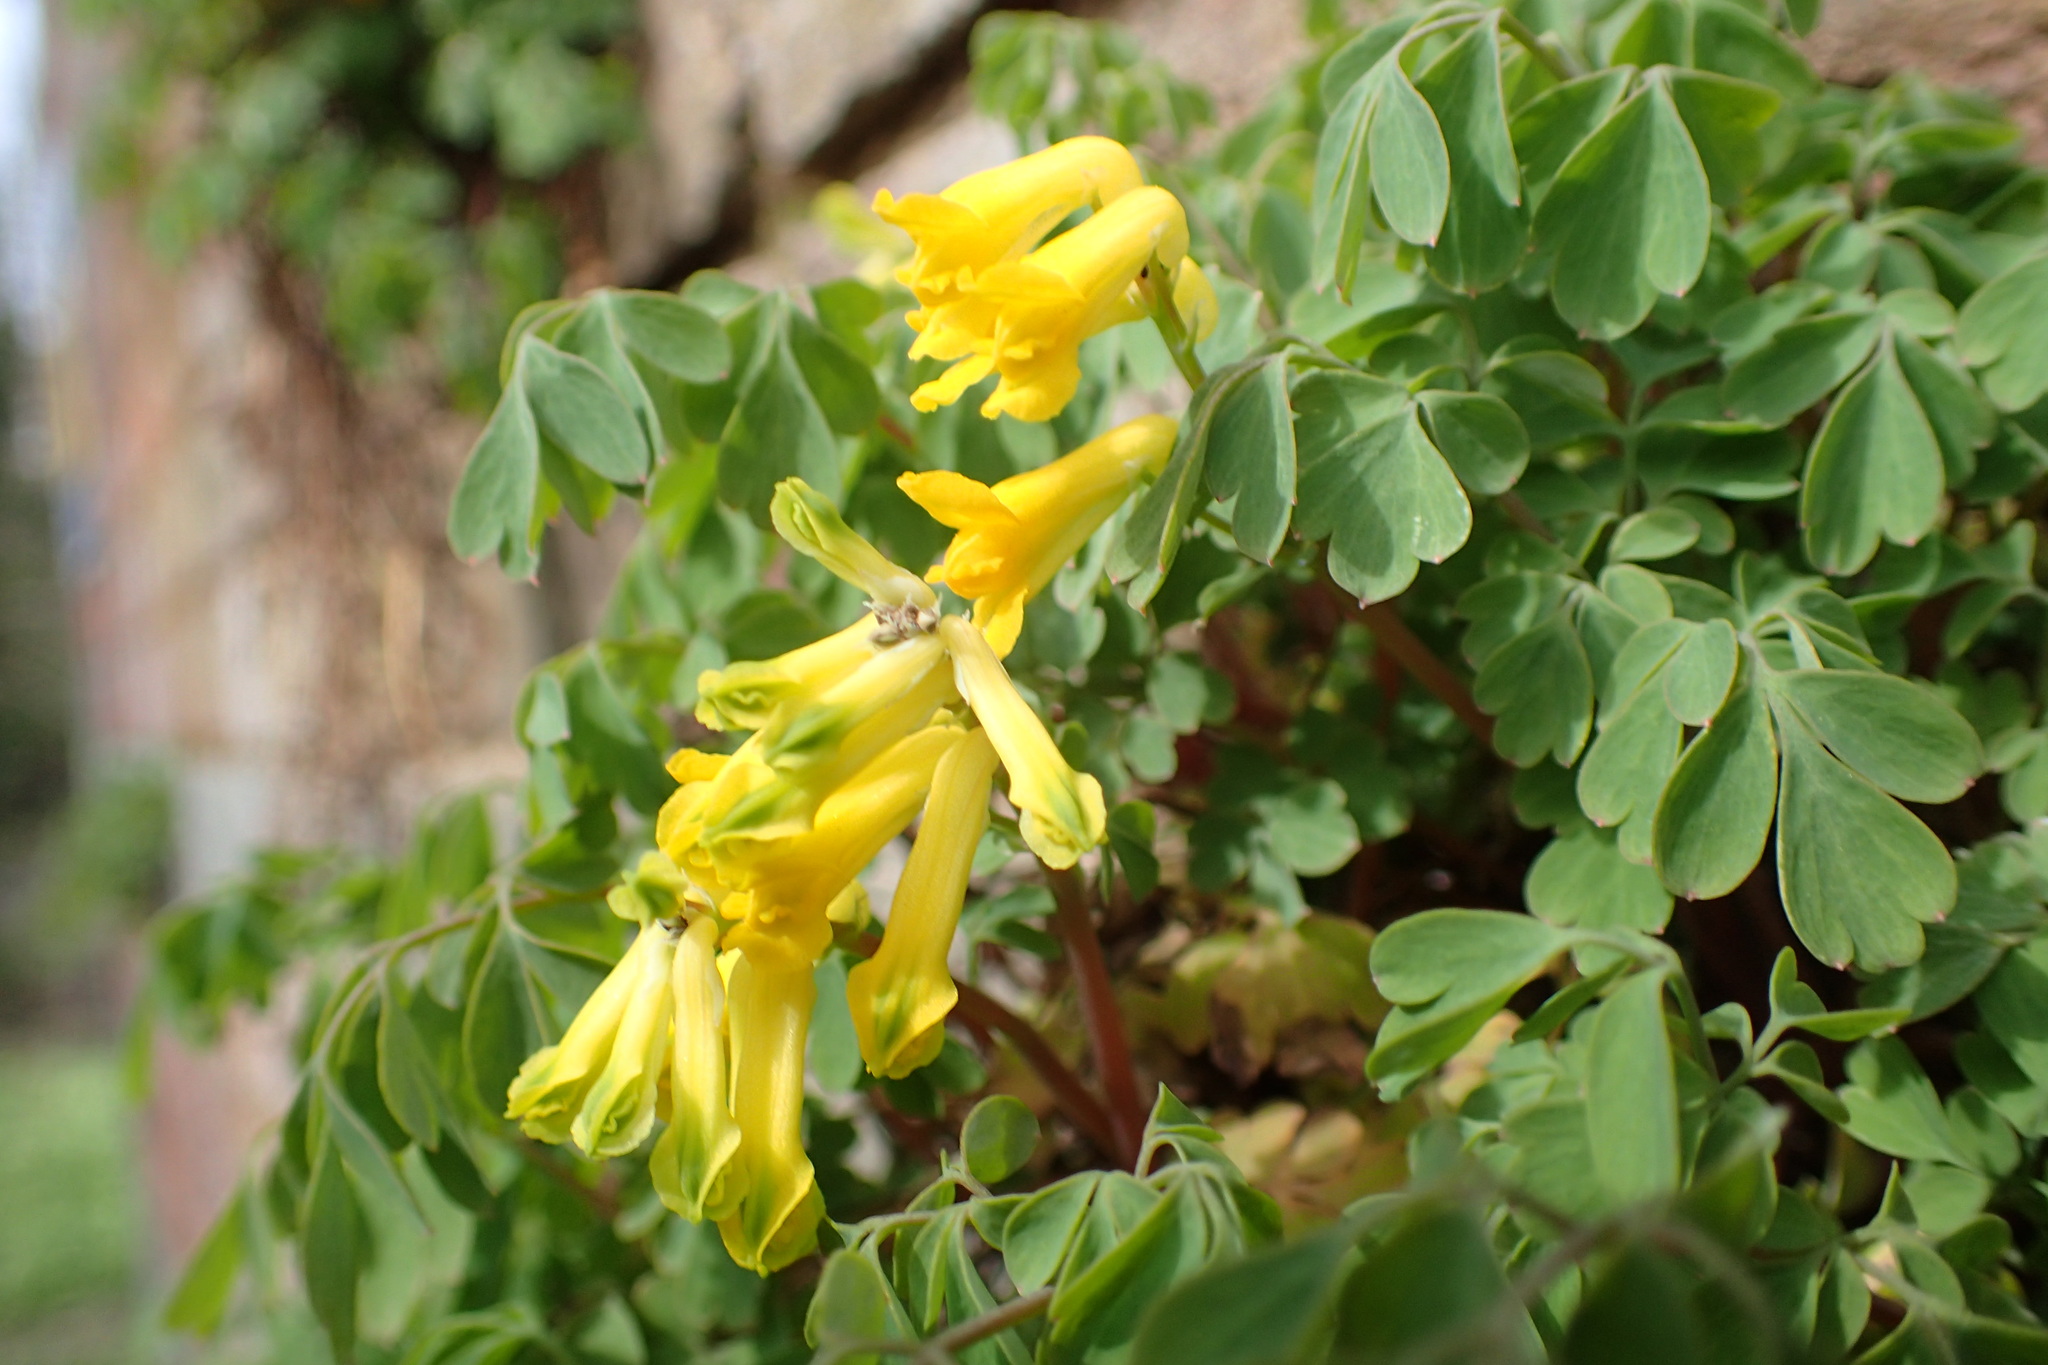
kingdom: Plantae
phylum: Tracheophyta
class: Magnoliopsida
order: Ranunculales
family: Papaveraceae
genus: Pseudofumaria
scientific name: Pseudofumaria lutea
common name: Yellow corydalis
